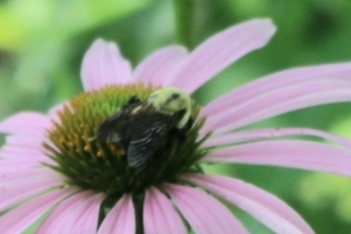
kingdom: Animalia
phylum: Arthropoda
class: Insecta
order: Hymenoptera
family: Apidae
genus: Bombus
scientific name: Bombus griseocollis
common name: Brown-belted bumble bee
